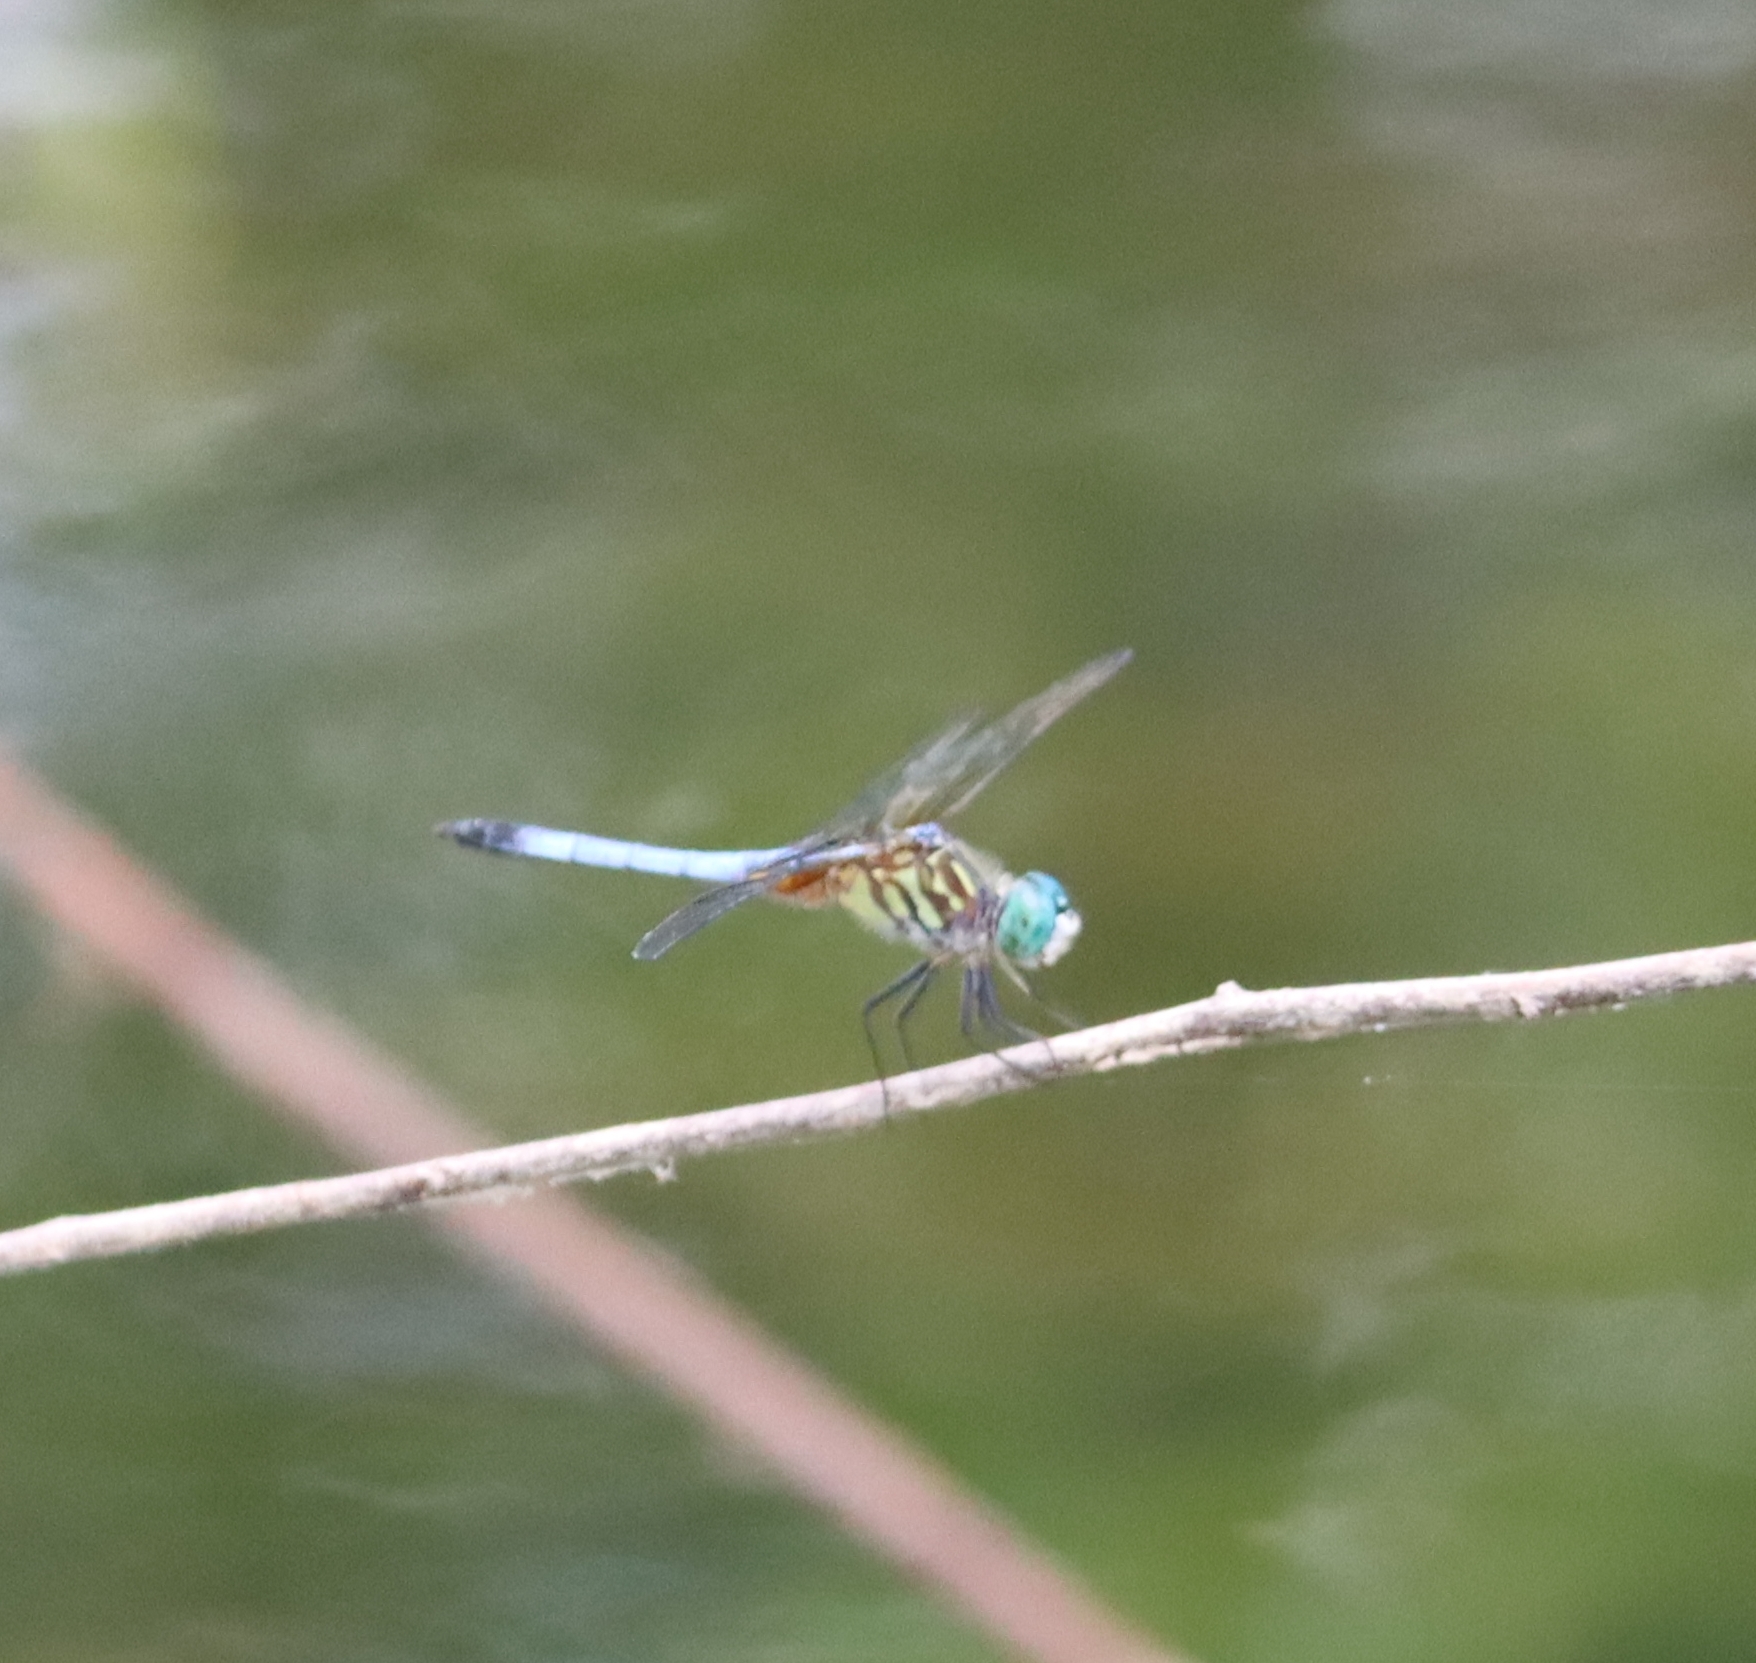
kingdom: Animalia
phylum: Arthropoda
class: Insecta
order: Odonata
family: Libellulidae
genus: Pachydiplax
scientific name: Pachydiplax longipennis
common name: Blue dasher
